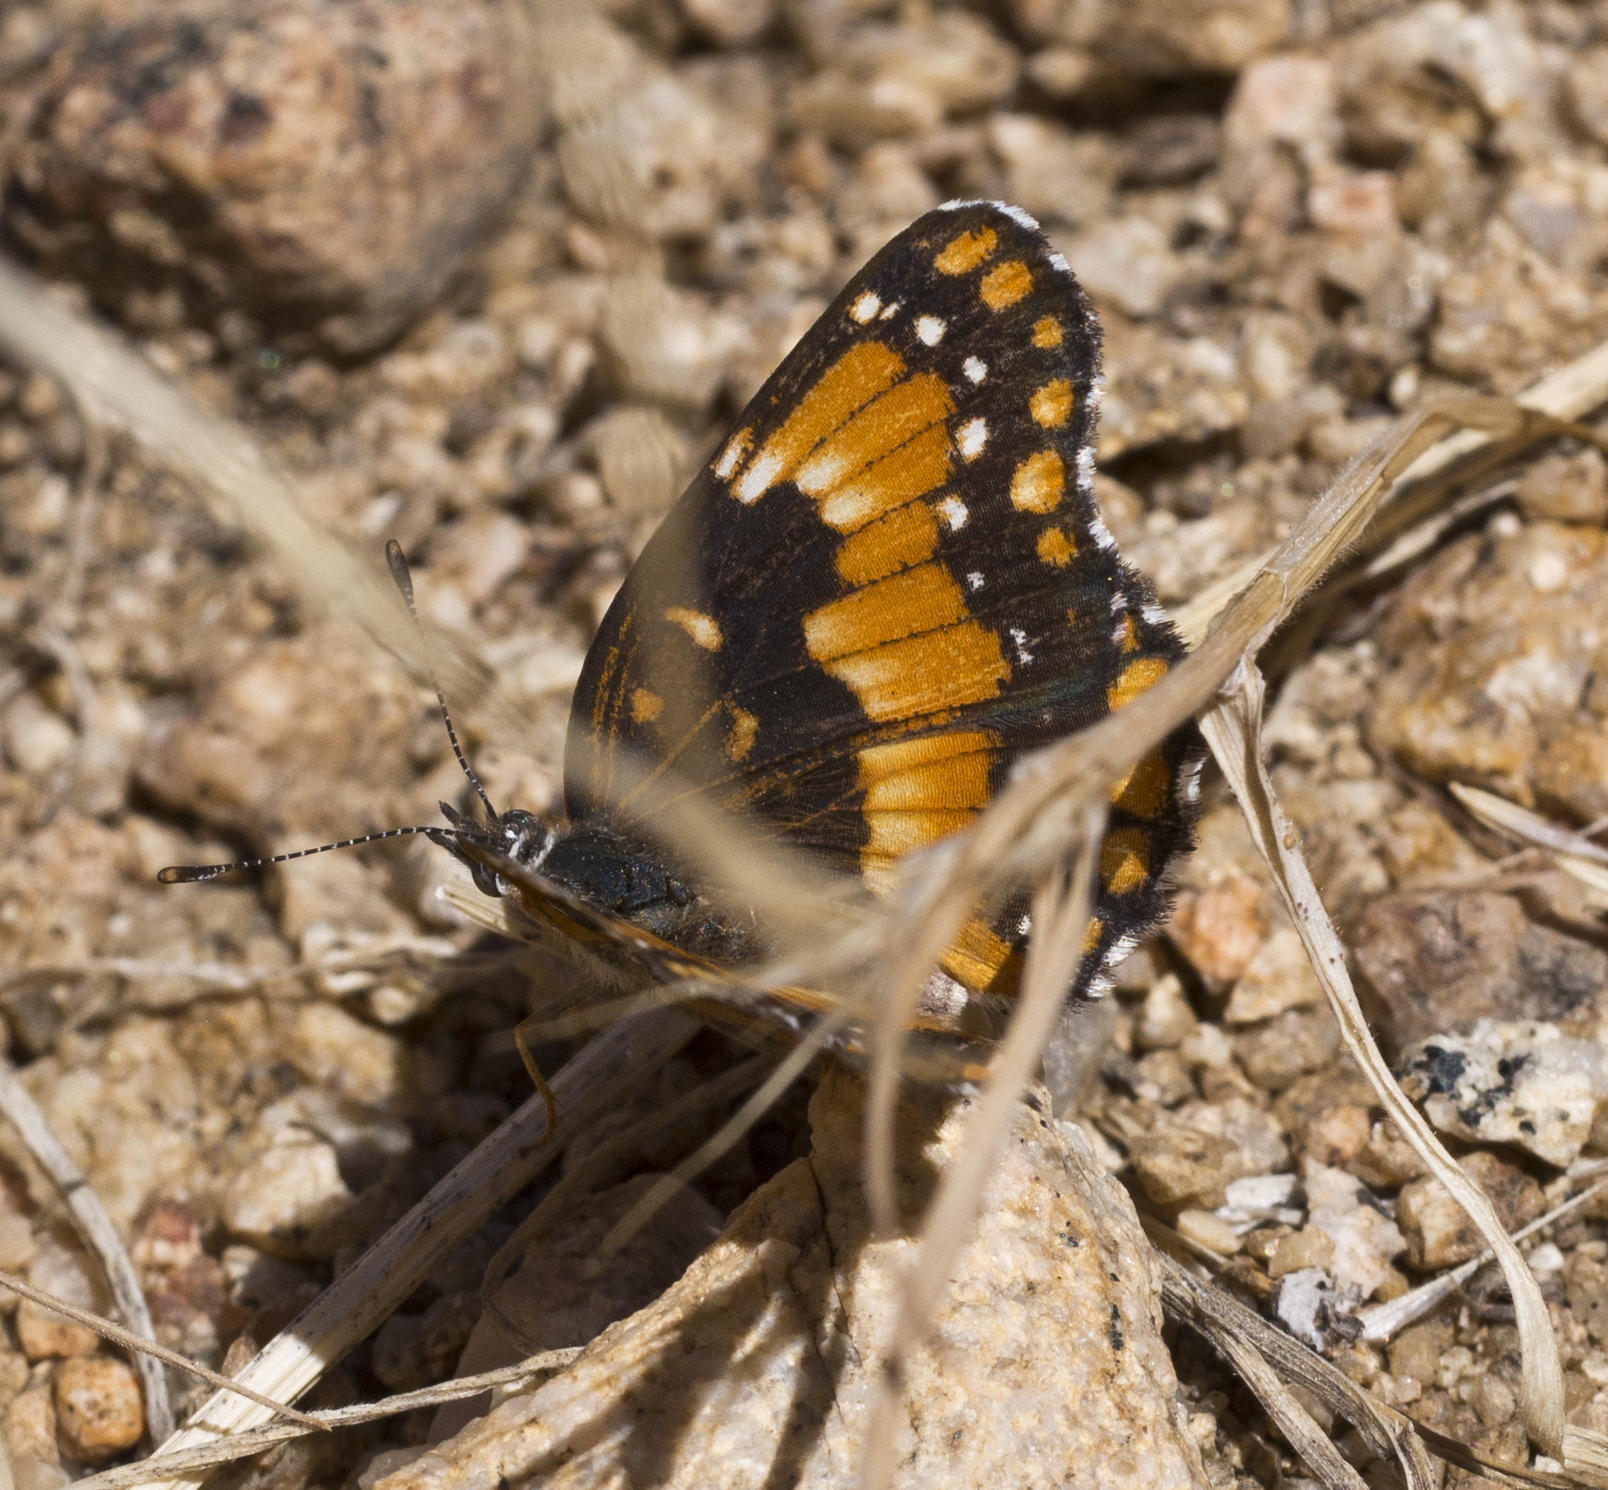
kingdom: Animalia
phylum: Arthropoda
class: Insecta
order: Lepidoptera
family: Nymphalidae
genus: Chlosyne
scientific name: Chlosyne californica
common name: California patch
